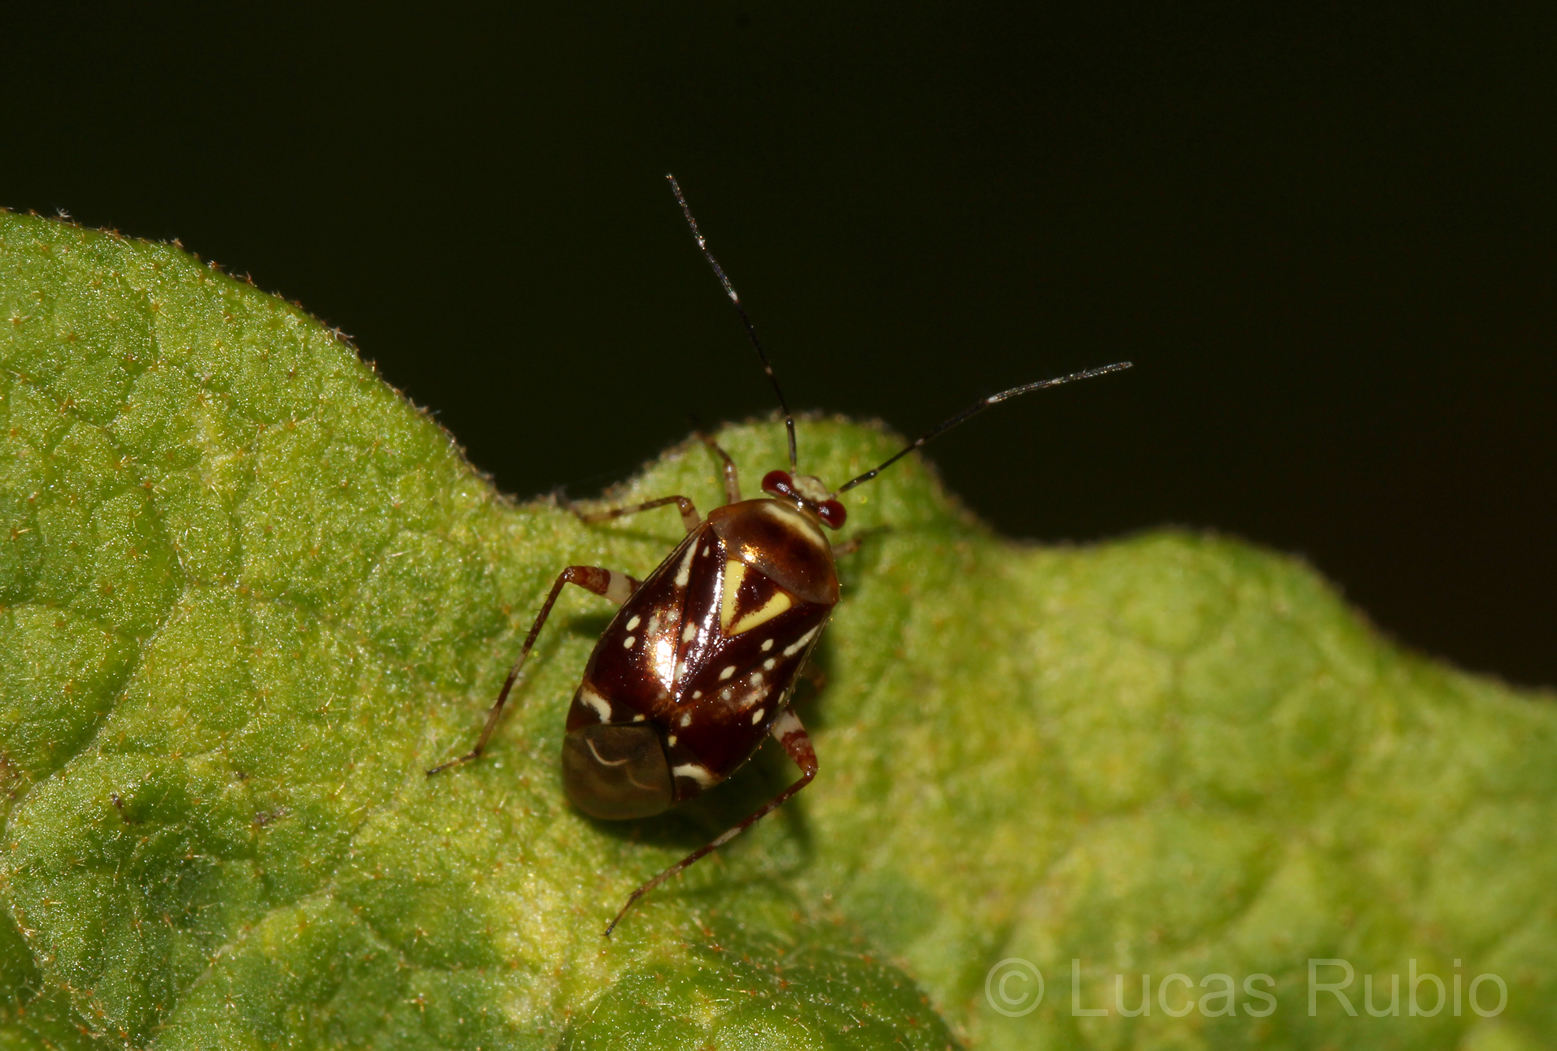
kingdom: Animalia
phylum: Arthropoda
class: Insecta
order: Hemiptera
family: Miridae
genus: Horciasoides
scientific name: Horciasoides nobilellus
